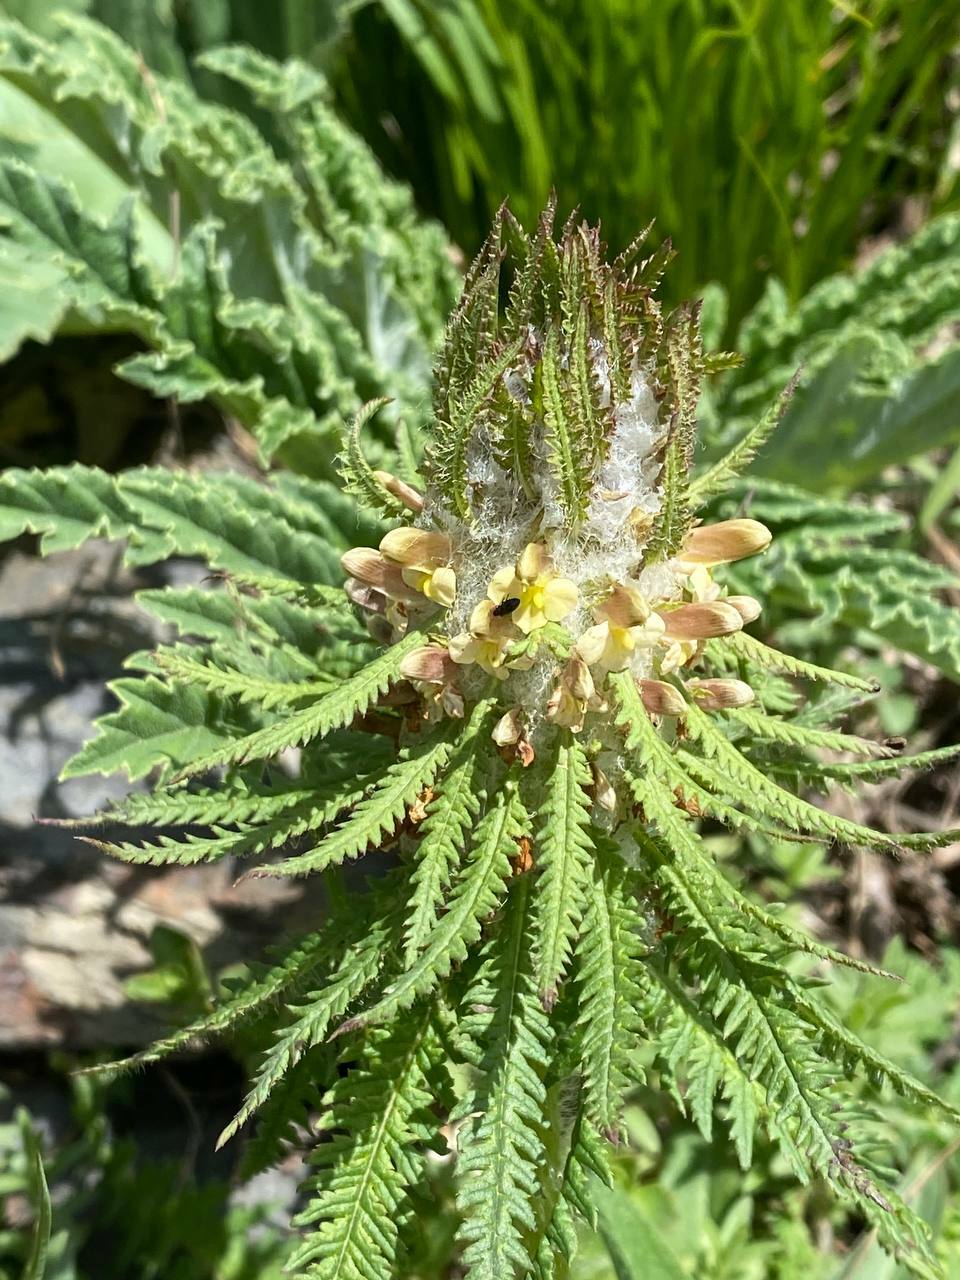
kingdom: Plantae
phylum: Tracheophyta
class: Magnoliopsida
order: Lamiales
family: Orobanchaceae
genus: Pedicularis
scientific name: Pedicularis wilhelmsiana
